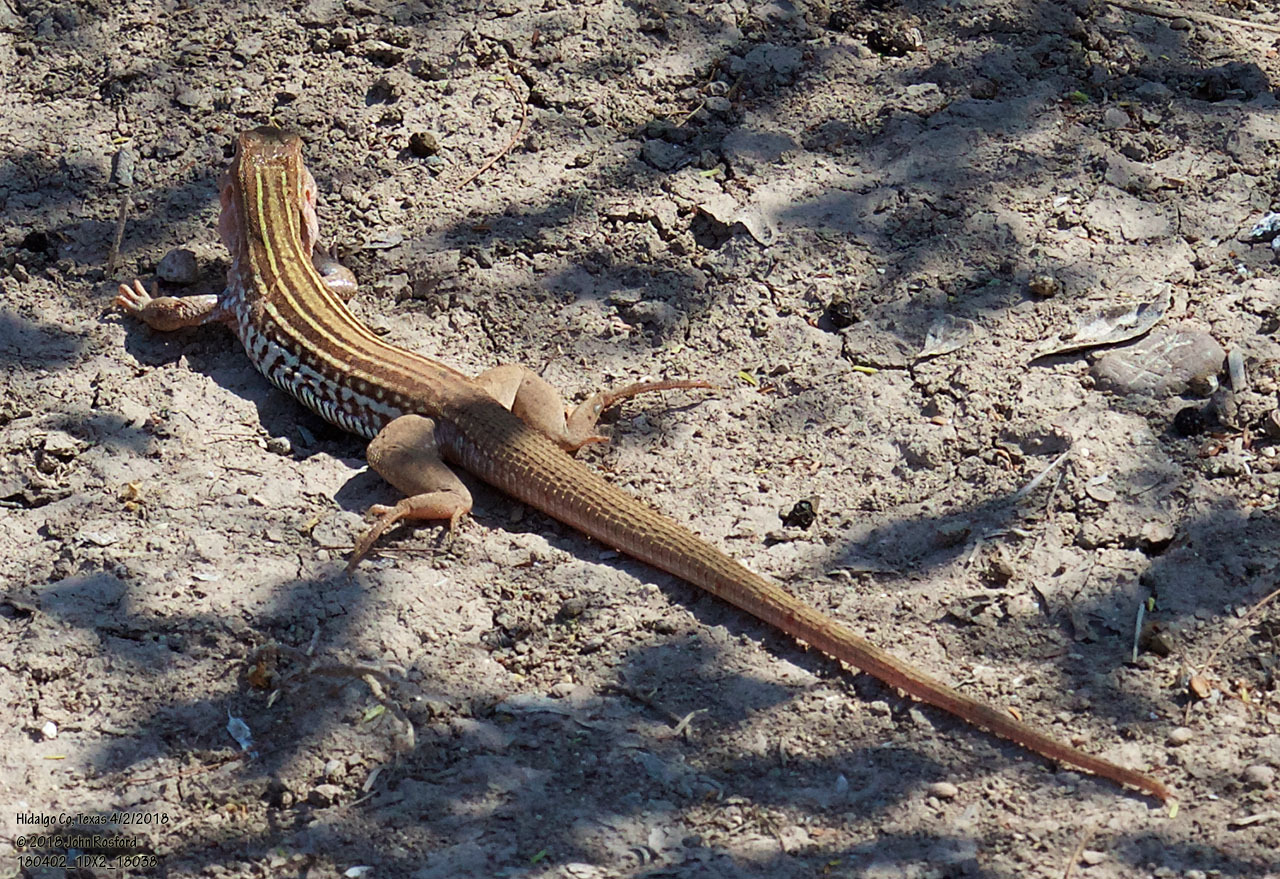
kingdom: Animalia
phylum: Chordata
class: Squamata
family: Teiidae
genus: Aspidoscelis
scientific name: Aspidoscelis gularis
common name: Eastern spotted whiptail
